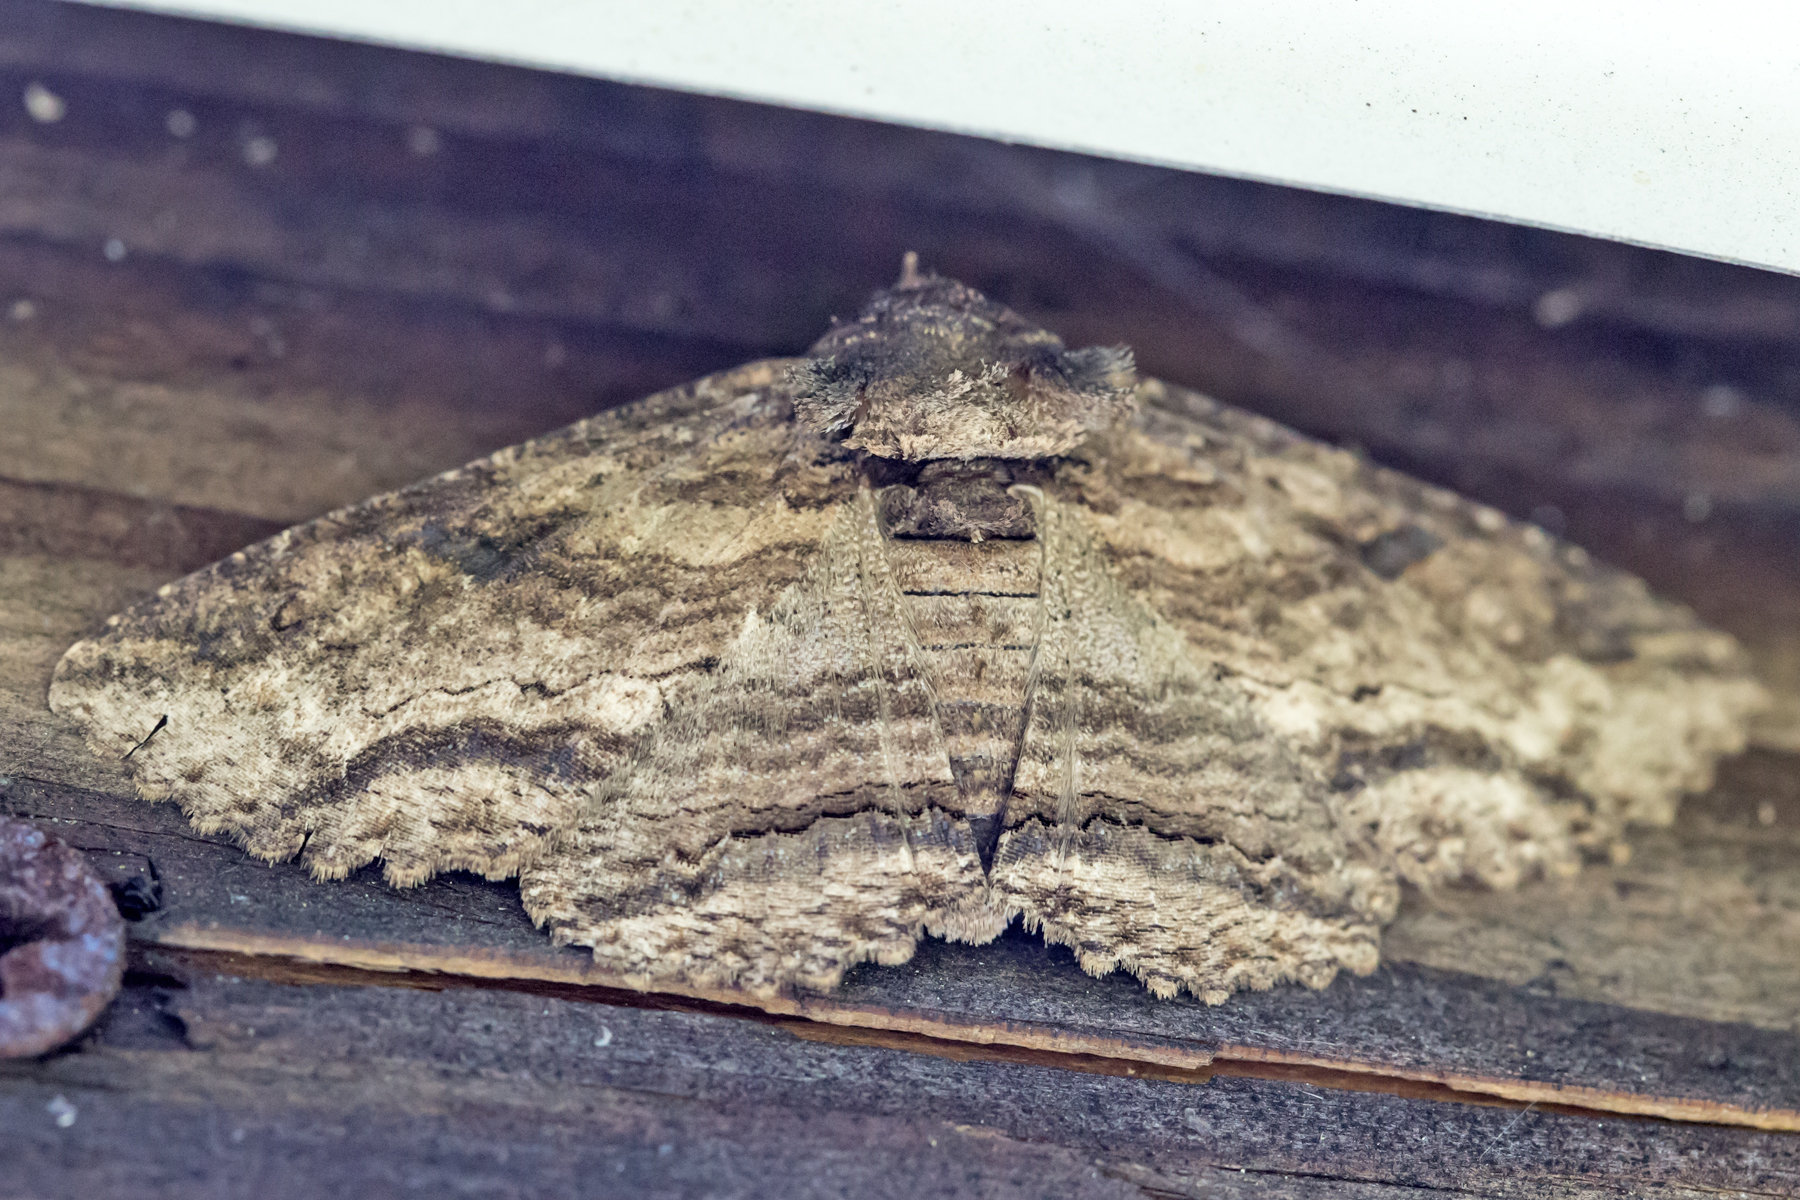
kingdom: Animalia
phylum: Arthropoda
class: Insecta
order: Lepidoptera
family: Erebidae
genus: Zale
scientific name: Zale lunata
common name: Lunate zale moth
